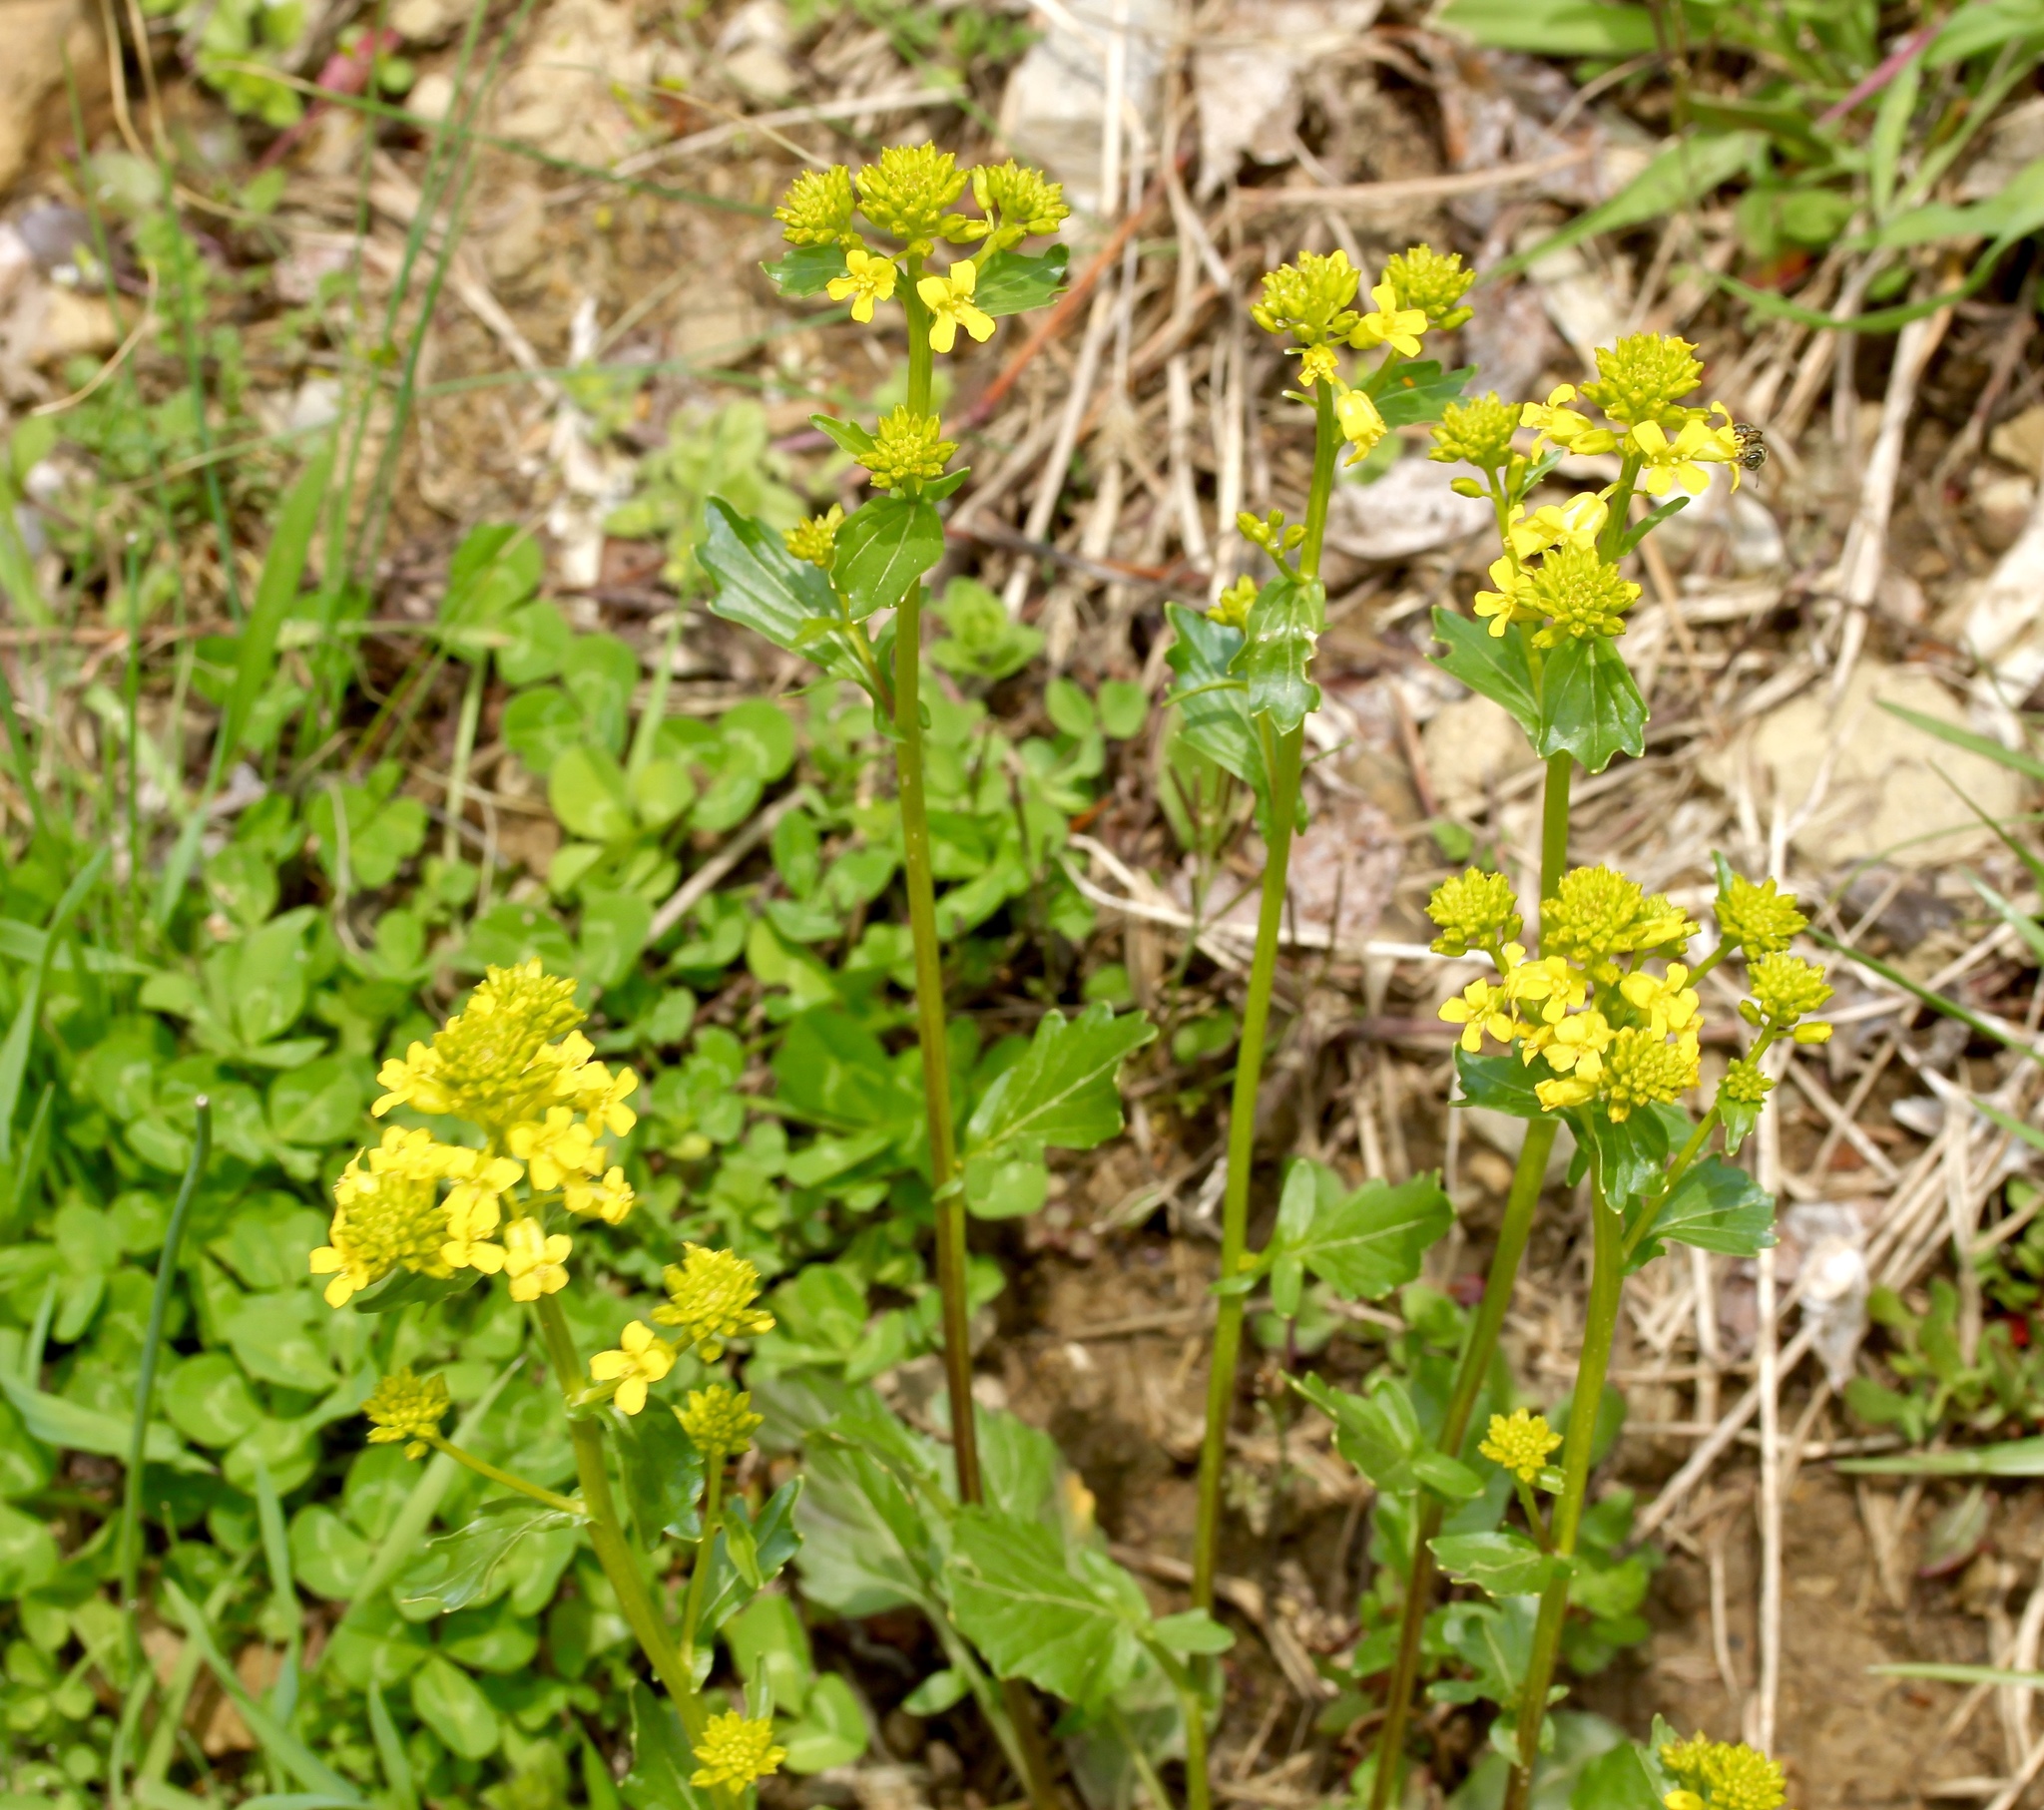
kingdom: Plantae
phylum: Tracheophyta
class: Magnoliopsida
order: Brassicales
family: Brassicaceae
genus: Barbarea
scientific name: Barbarea vulgaris
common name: Cressy-greens
